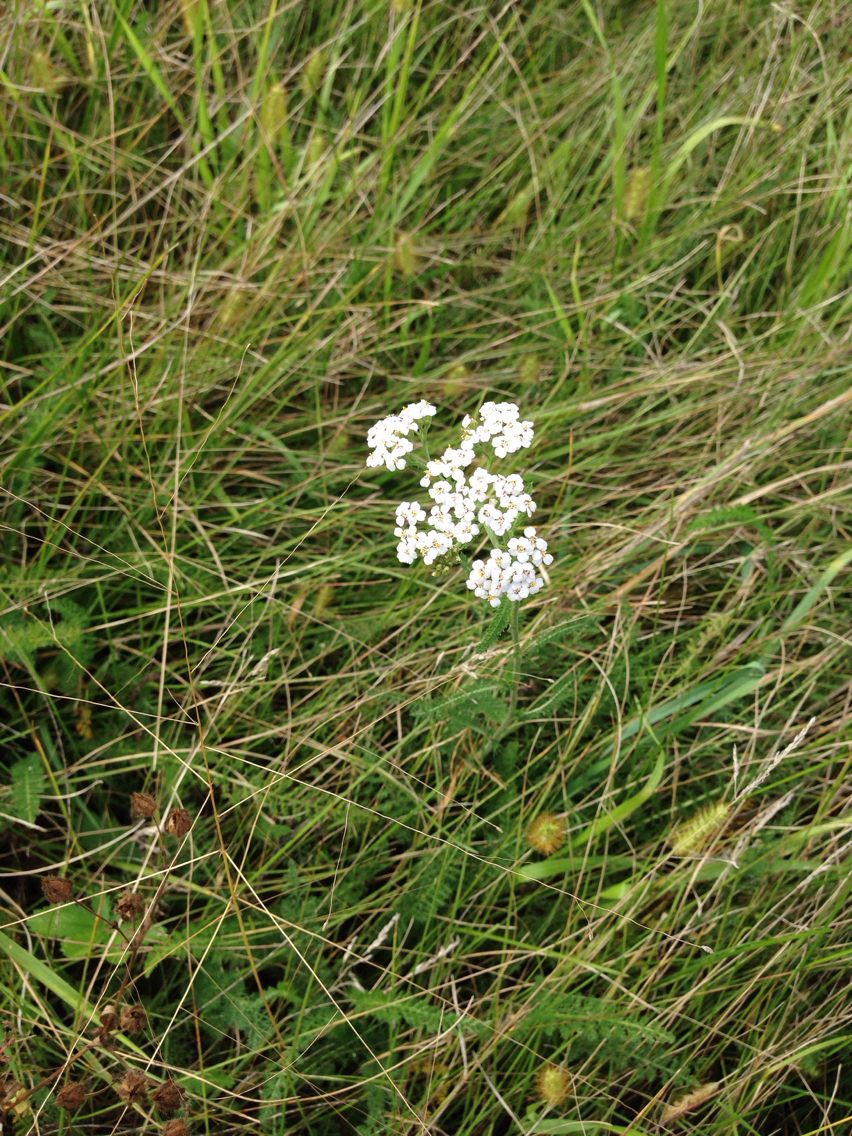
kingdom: Plantae
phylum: Tracheophyta
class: Magnoliopsida
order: Asterales
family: Asteraceae
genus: Achillea
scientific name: Achillea millefolium
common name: Yarrow
